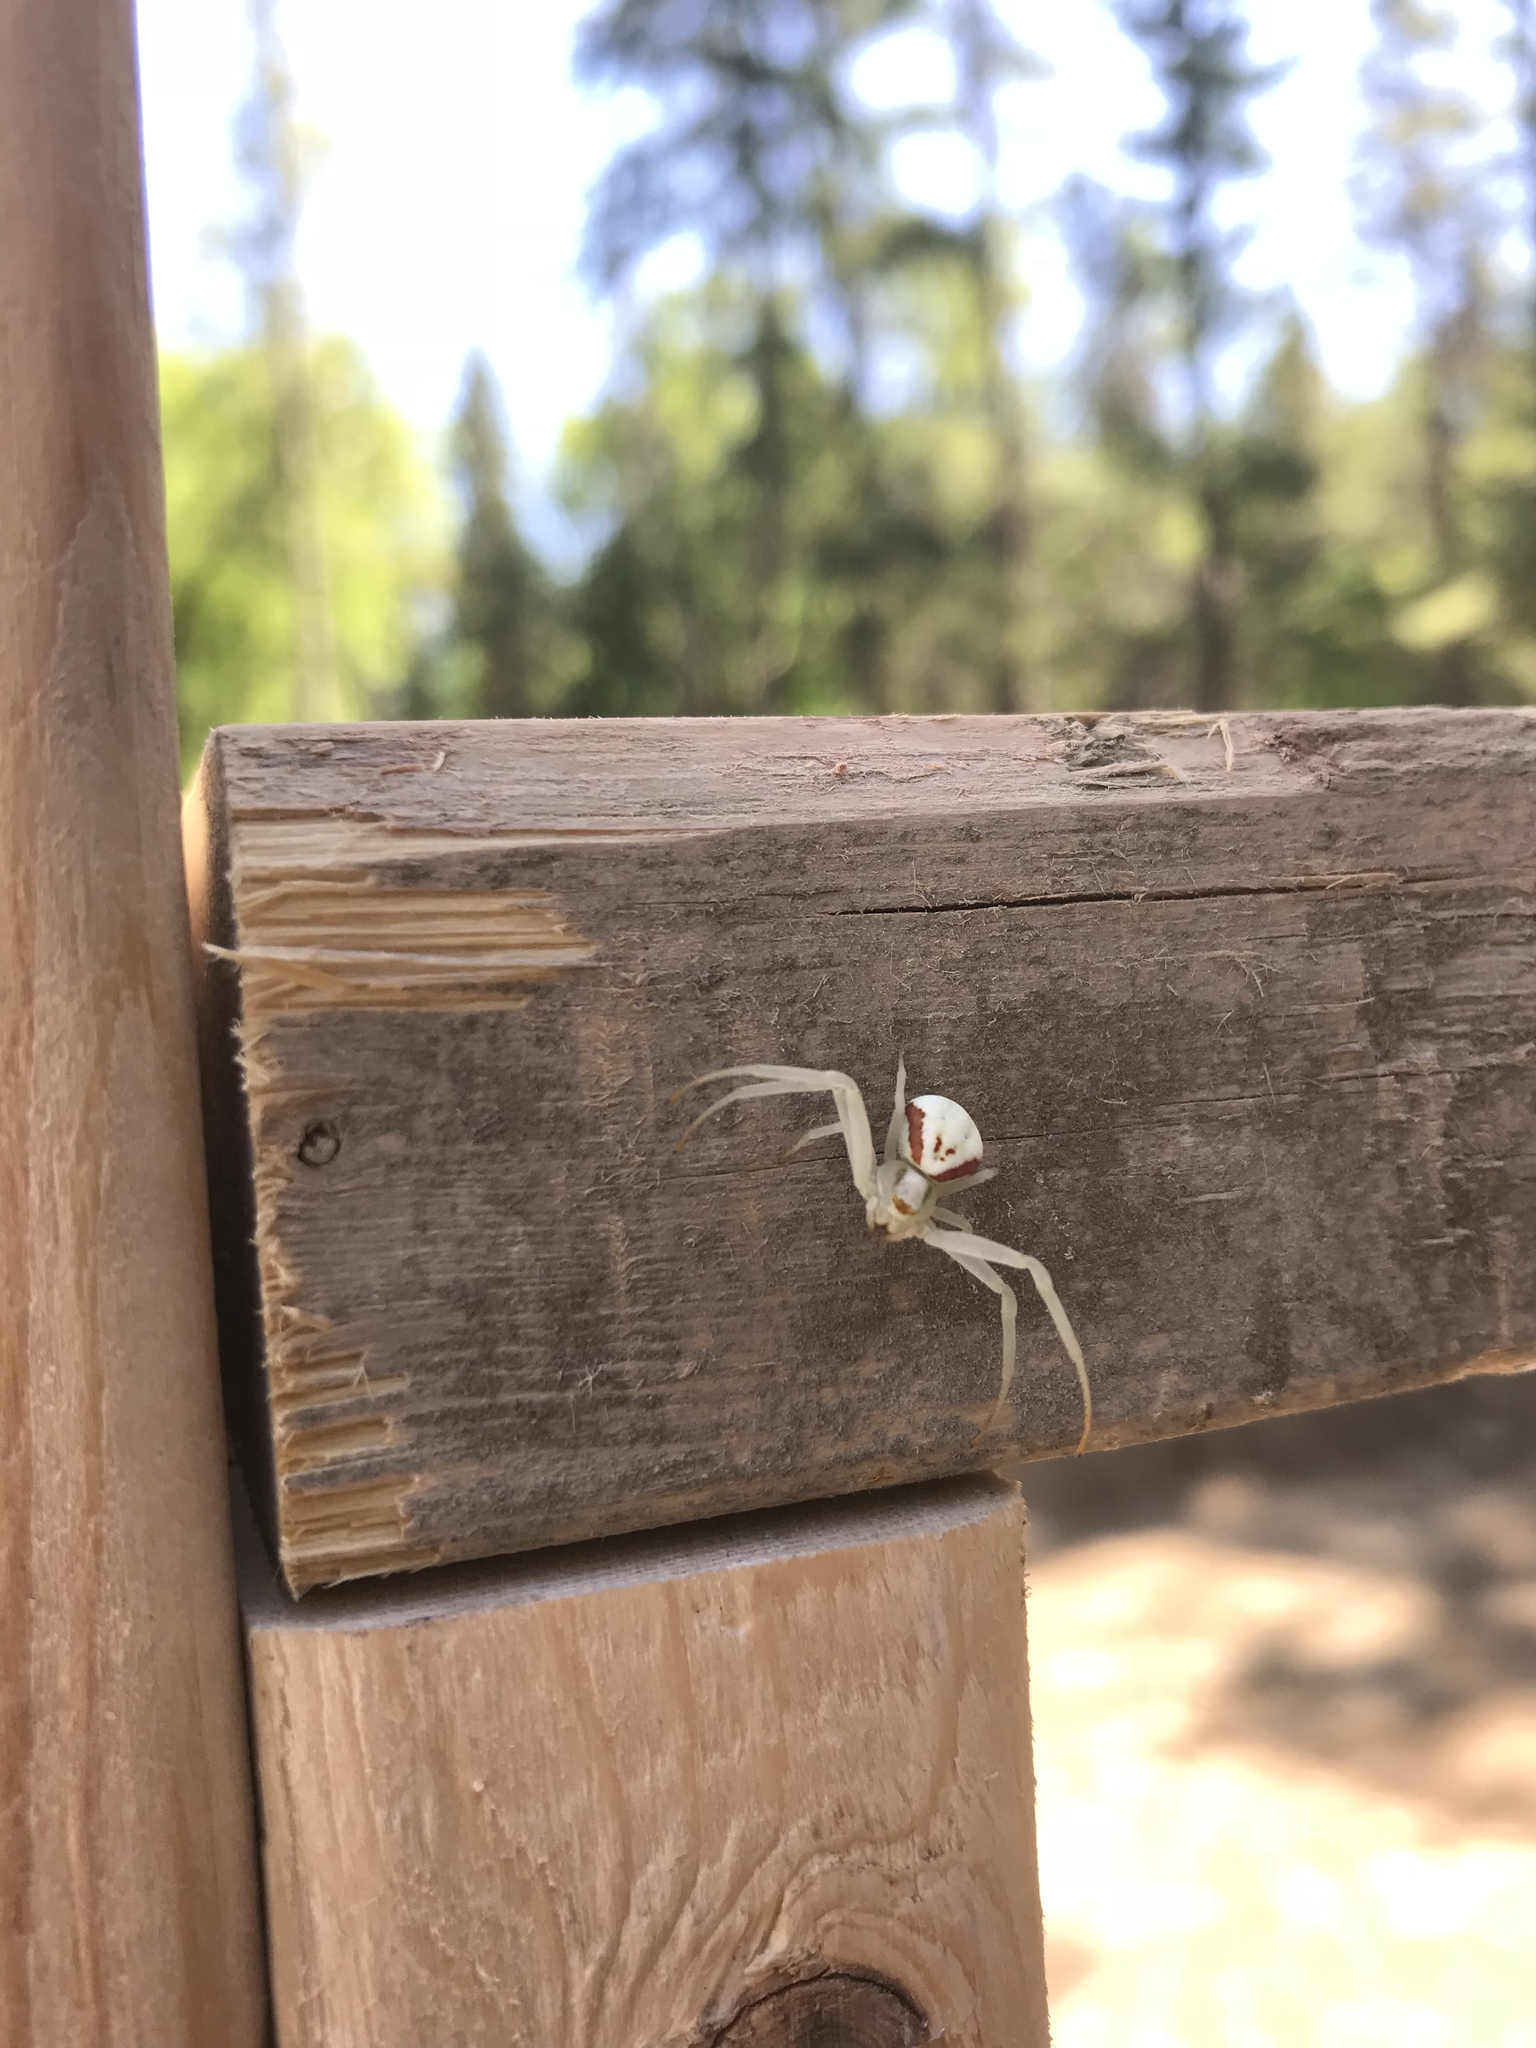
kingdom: Animalia
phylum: Arthropoda
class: Arachnida
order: Araneae
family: Thomisidae
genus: Misumena
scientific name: Misumena vatia
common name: Goldenrod crab spider
